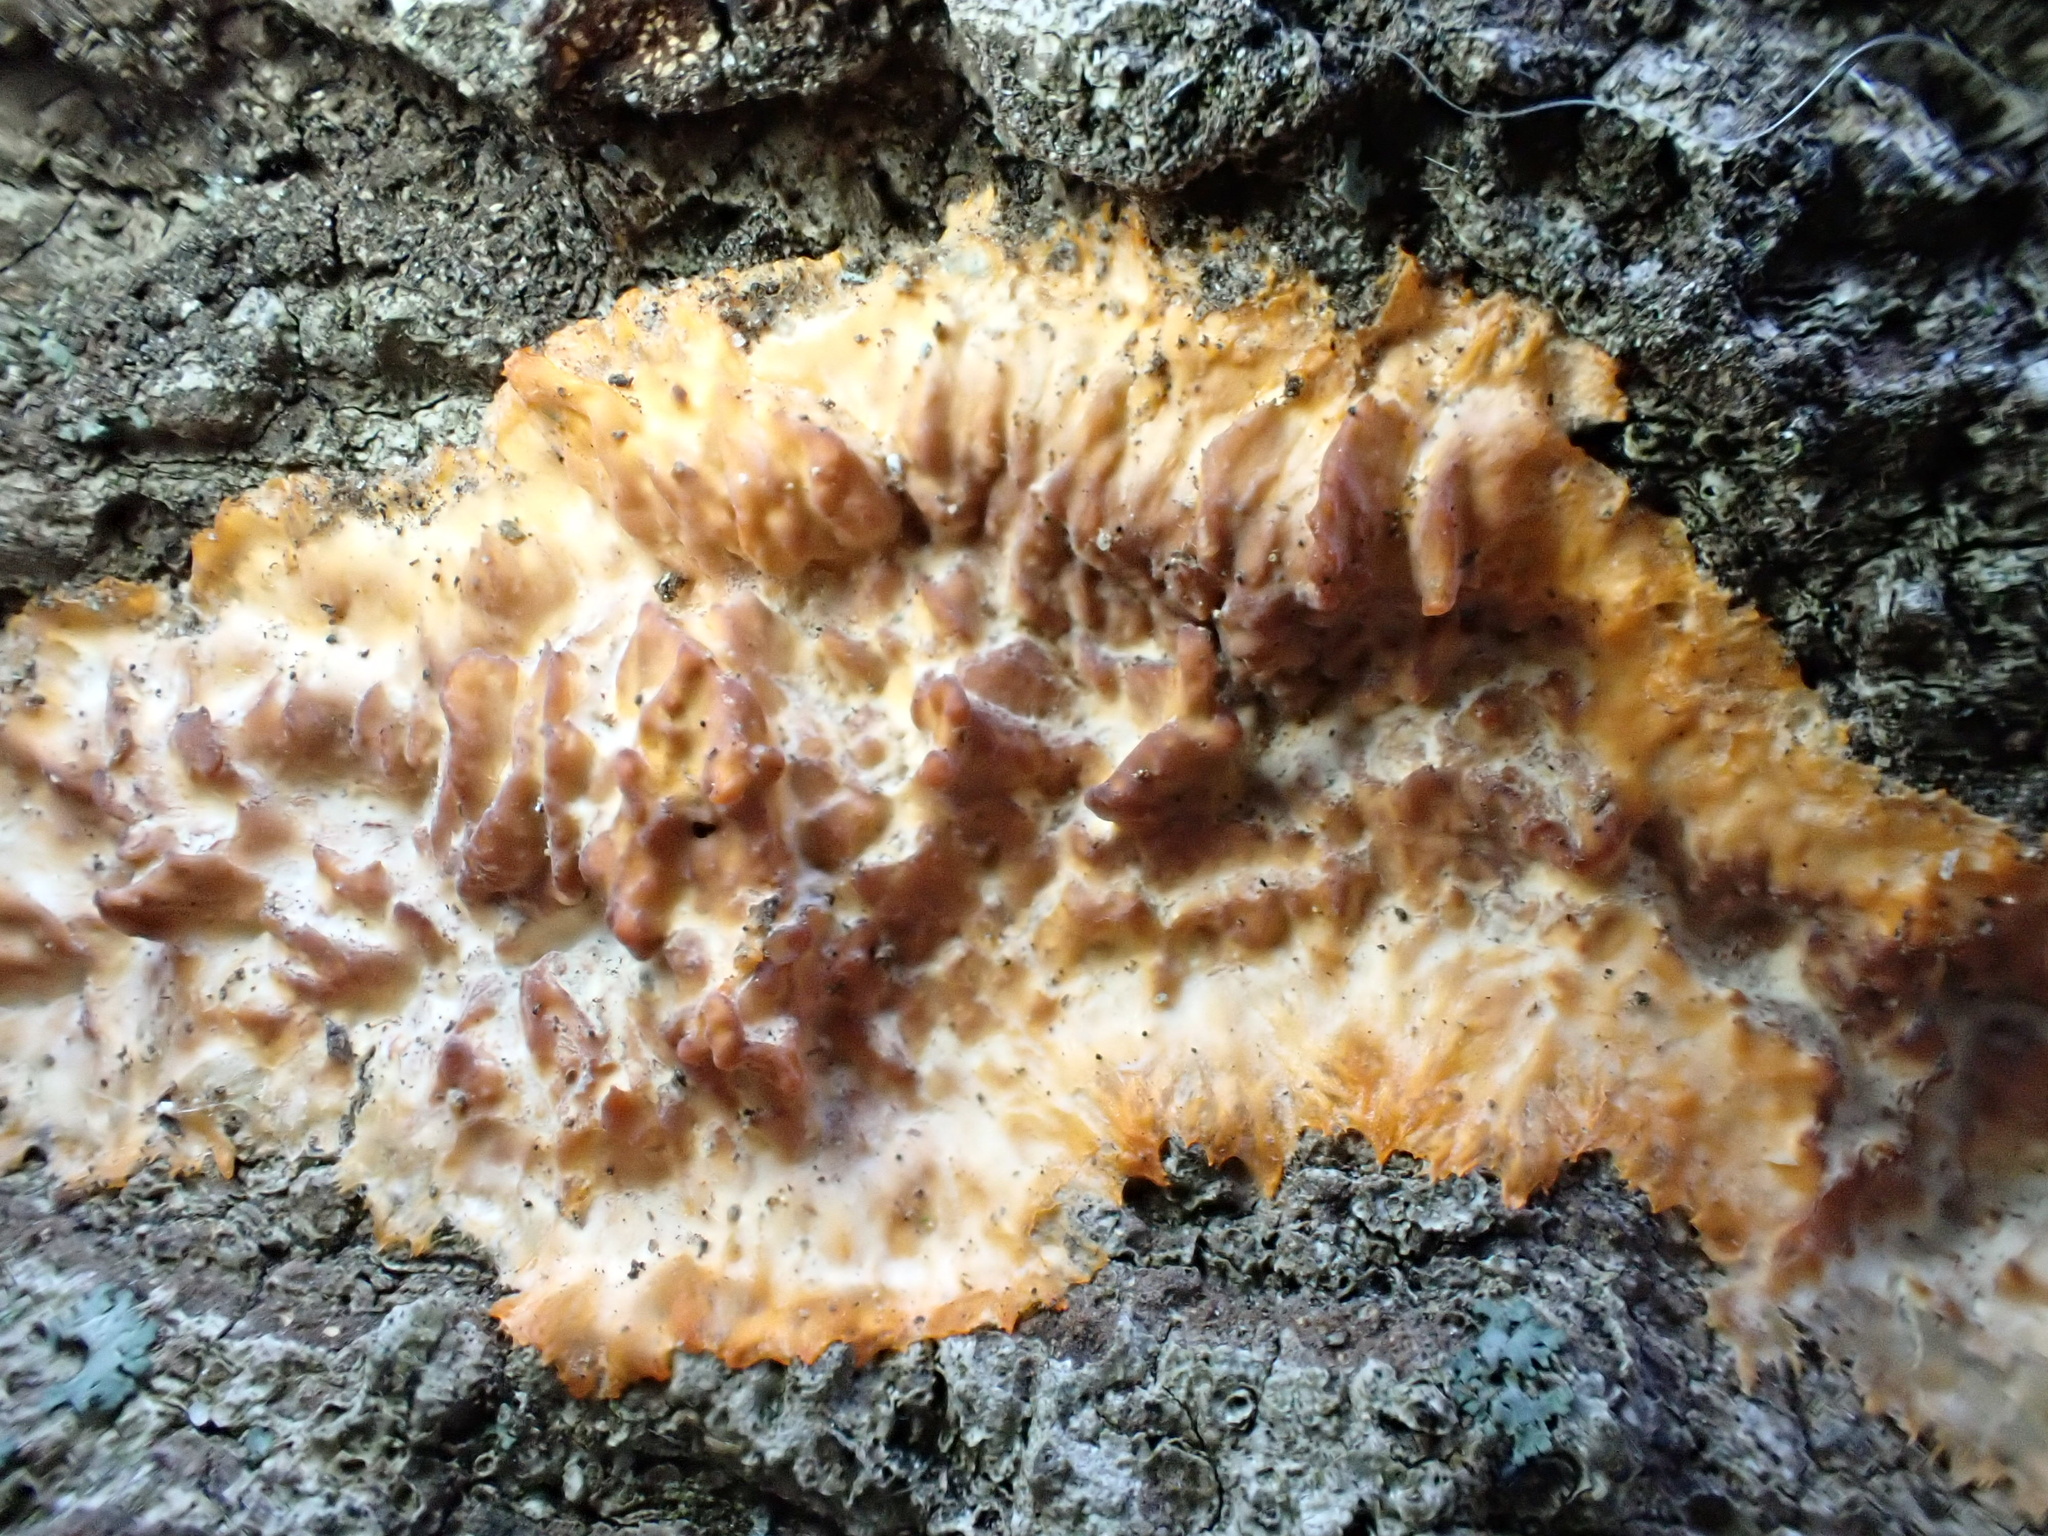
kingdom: Fungi
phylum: Basidiomycota
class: Agaricomycetes
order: Polyporales
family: Meruliaceae
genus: Phlebia
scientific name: Phlebia radiata
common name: Wrinkled crust
